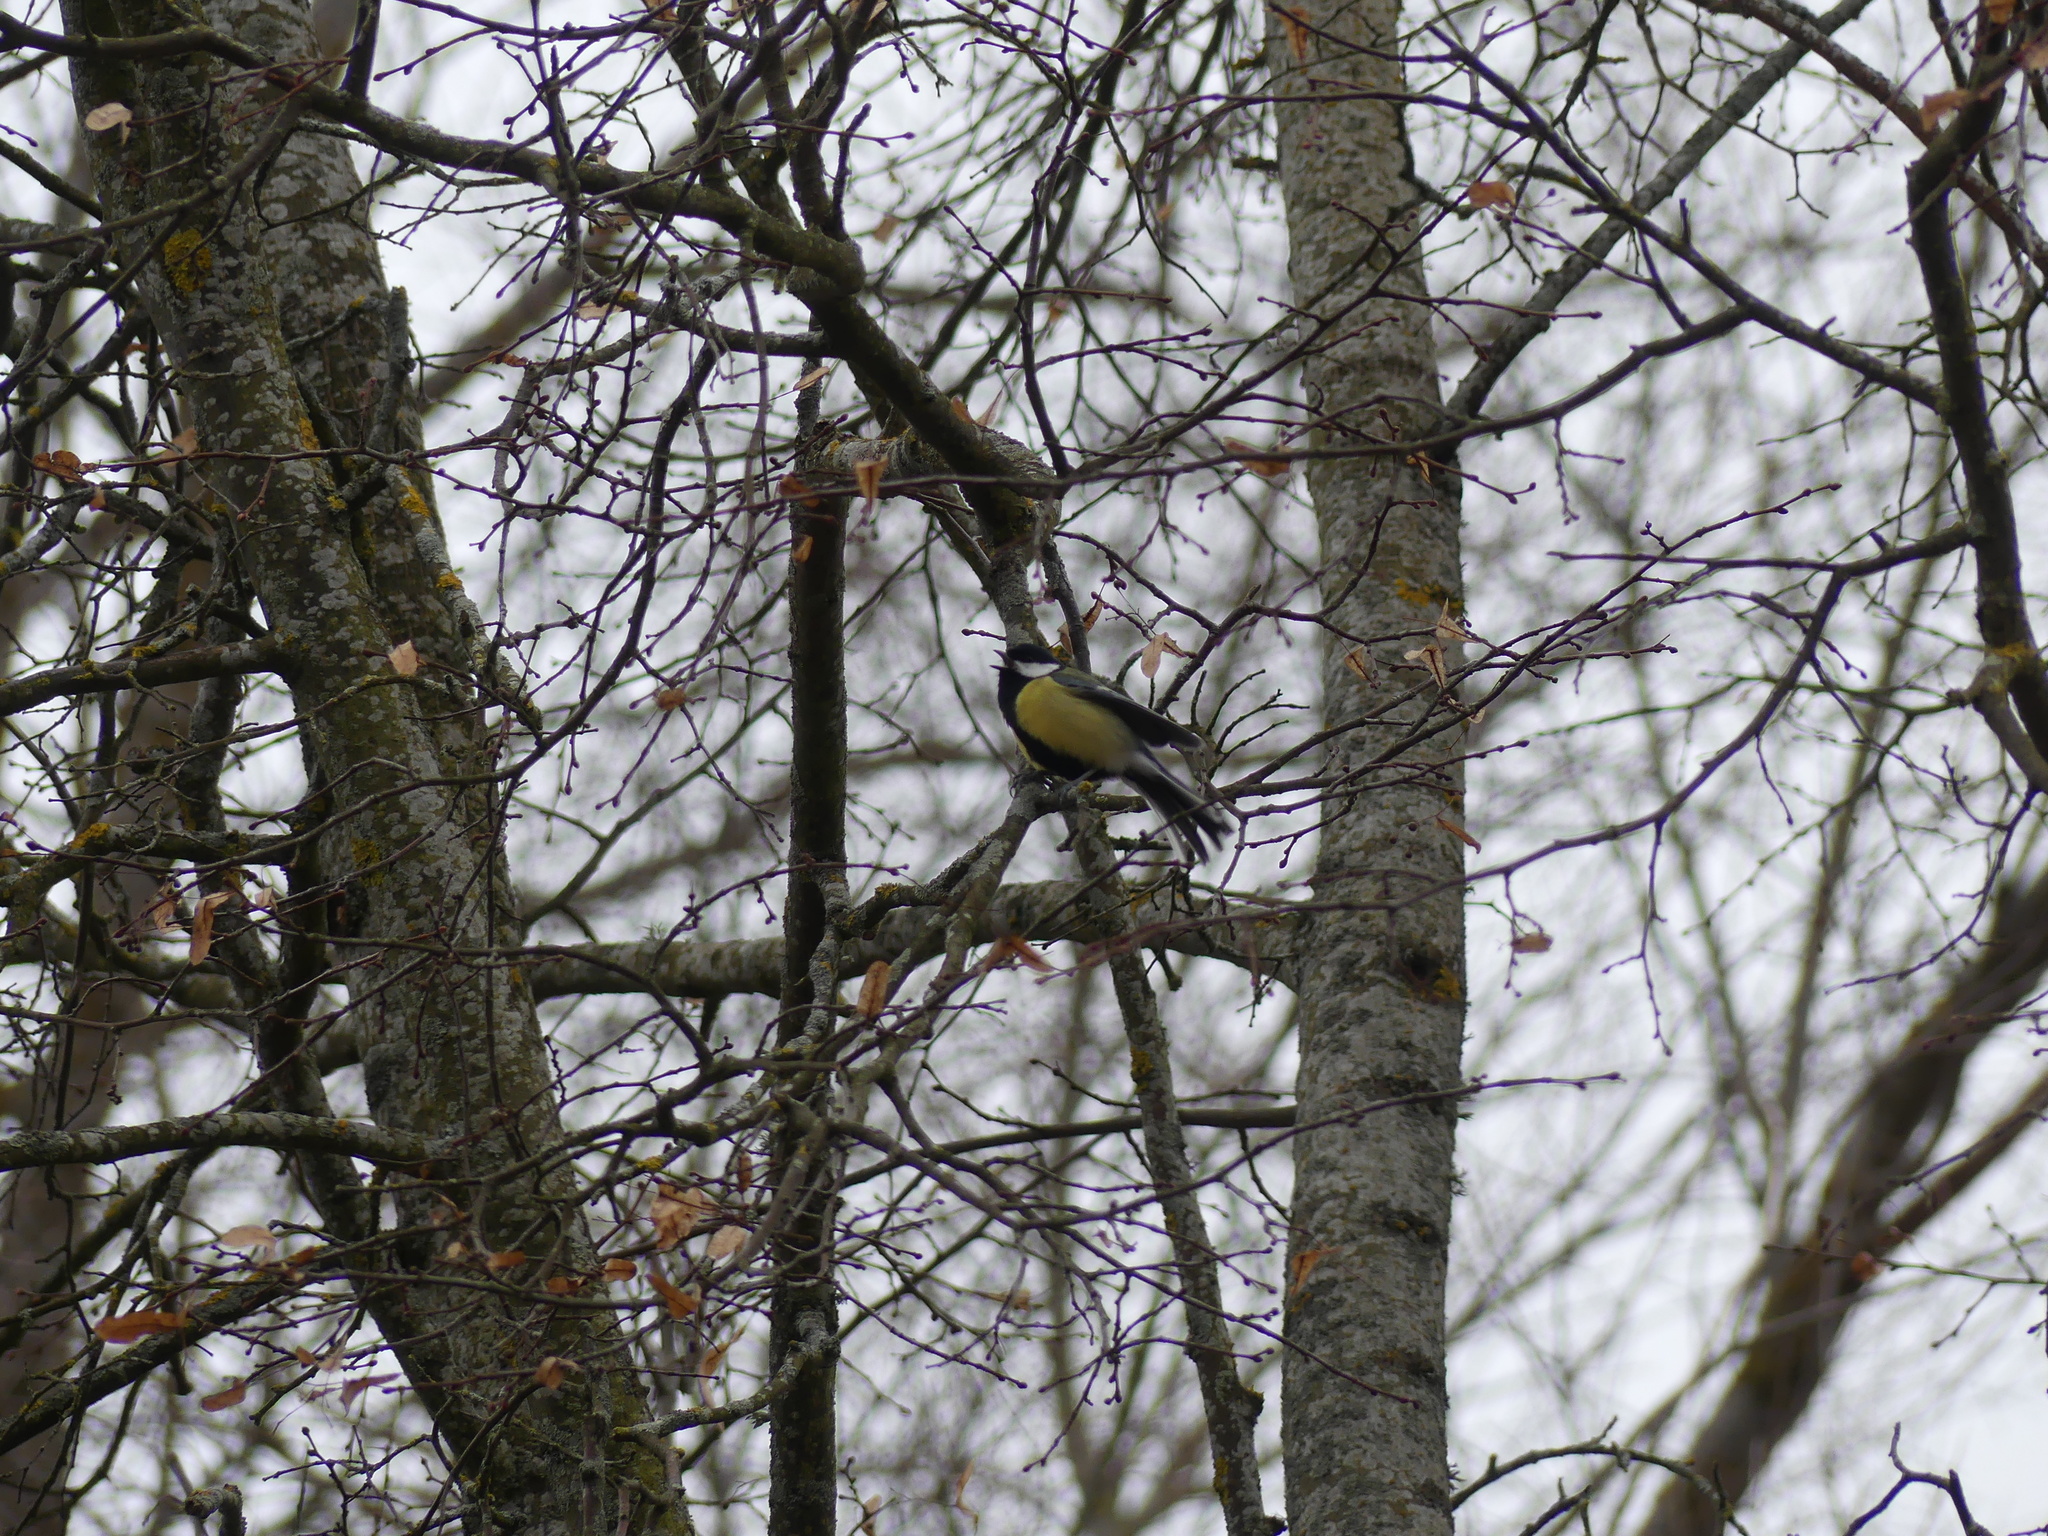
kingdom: Animalia
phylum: Chordata
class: Aves
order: Passeriformes
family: Paridae
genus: Parus
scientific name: Parus major
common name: Great tit
